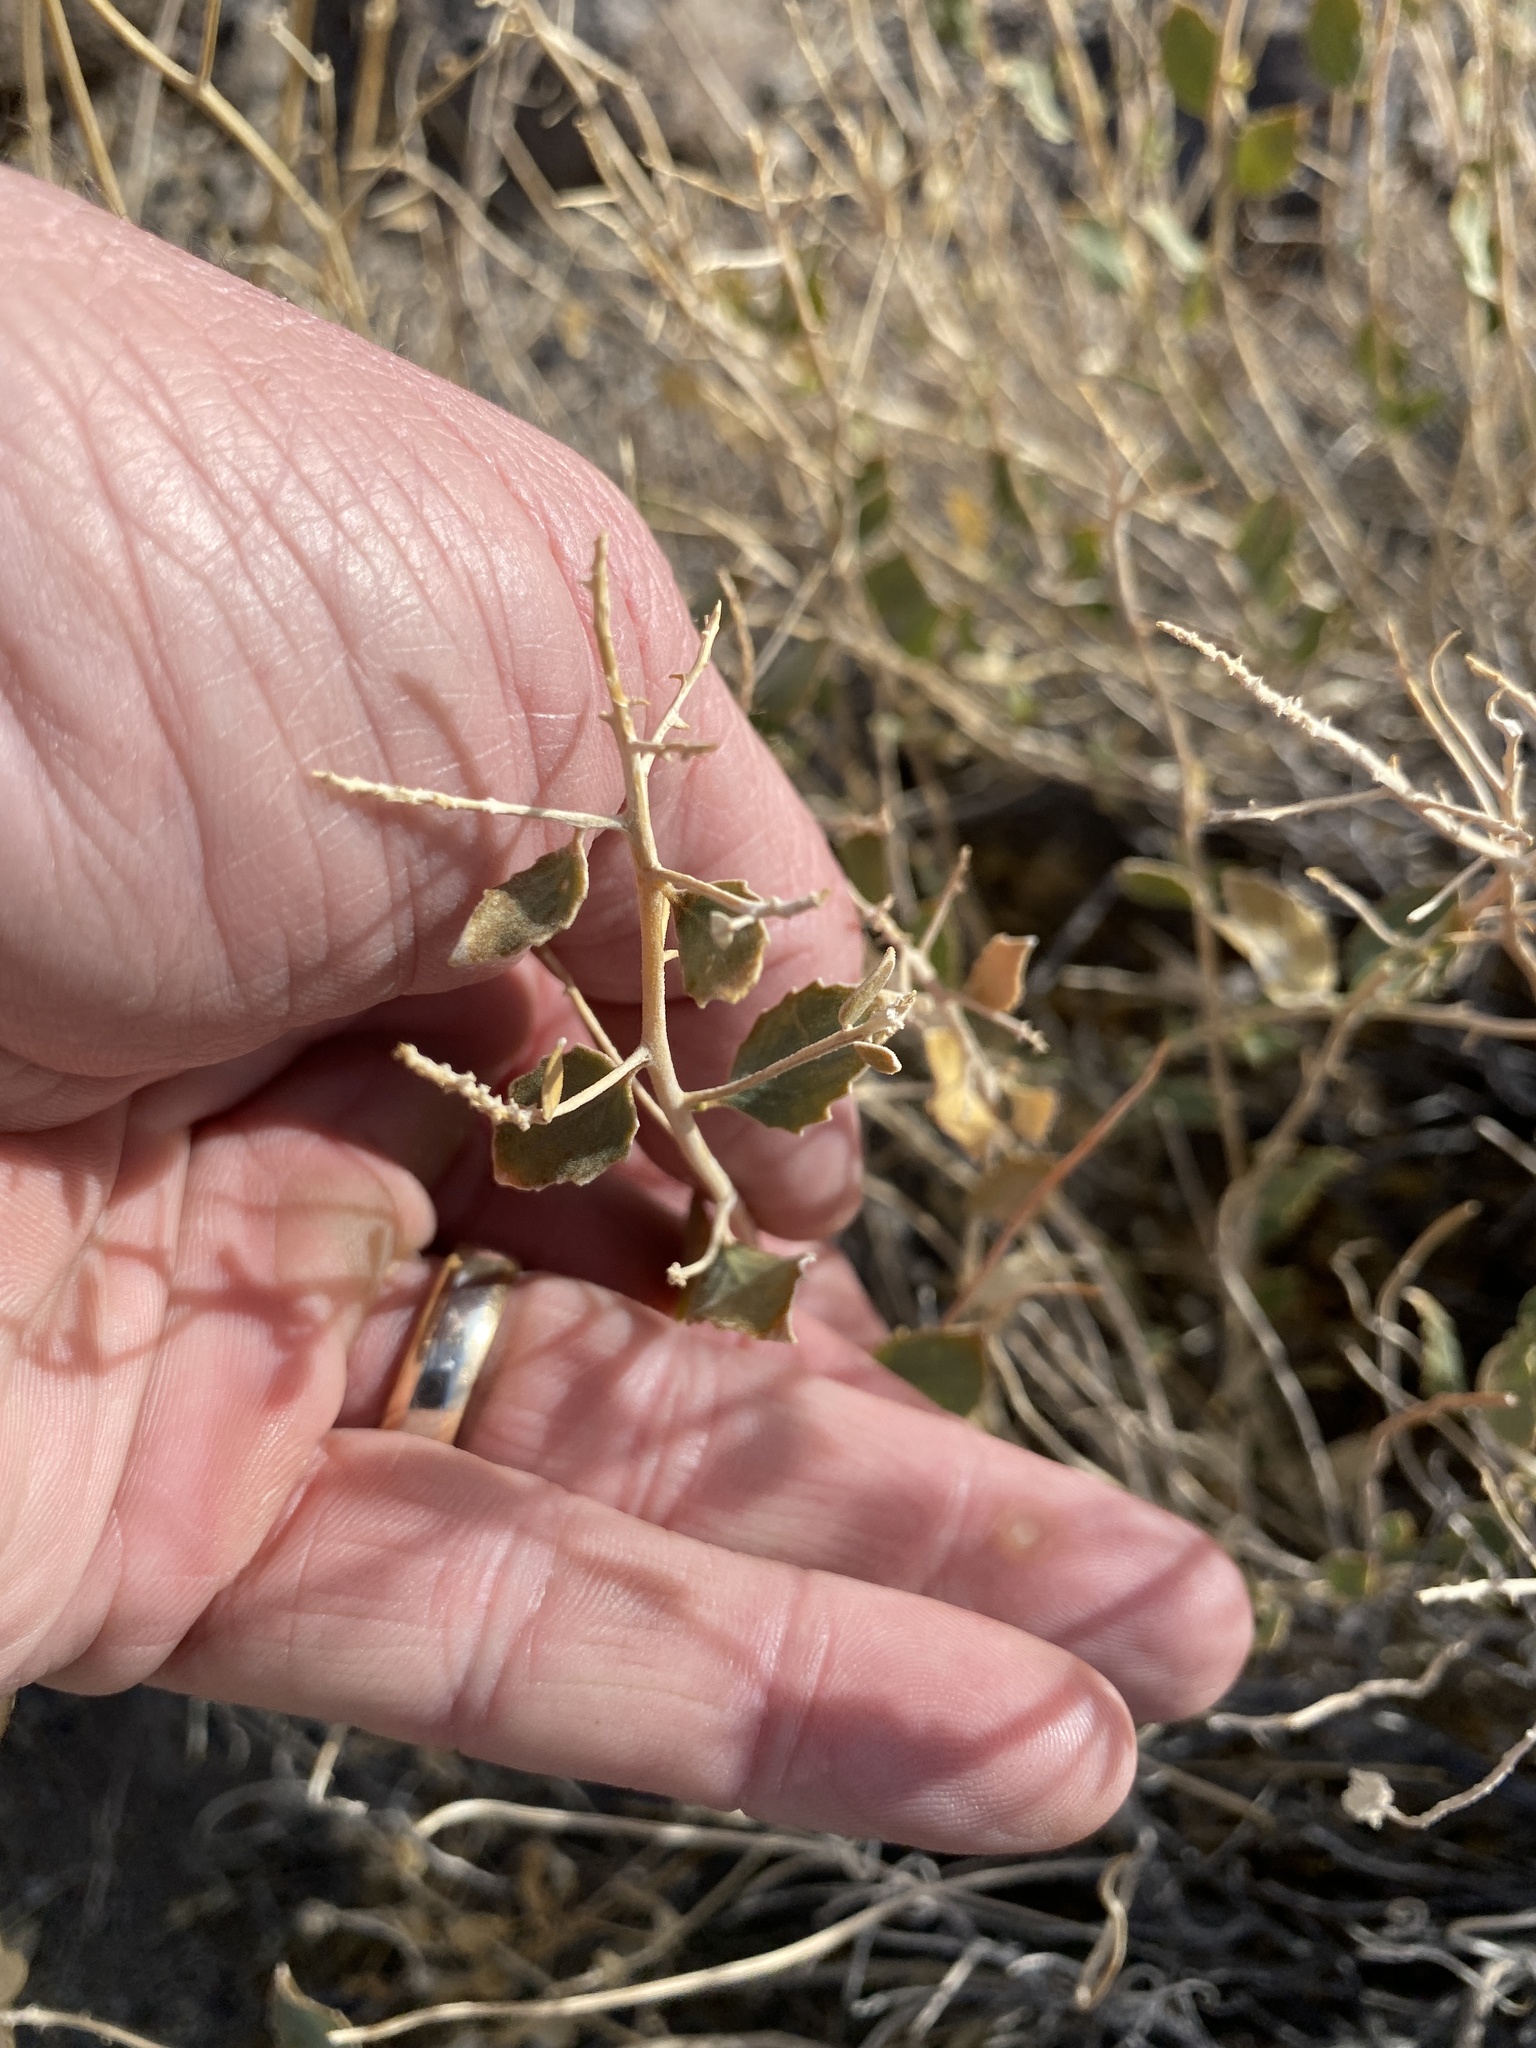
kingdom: Plantae
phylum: Tracheophyta
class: Magnoliopsida
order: Cornales
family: Loasaceae
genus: Petalonyx
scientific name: Petalonyx nitidus
